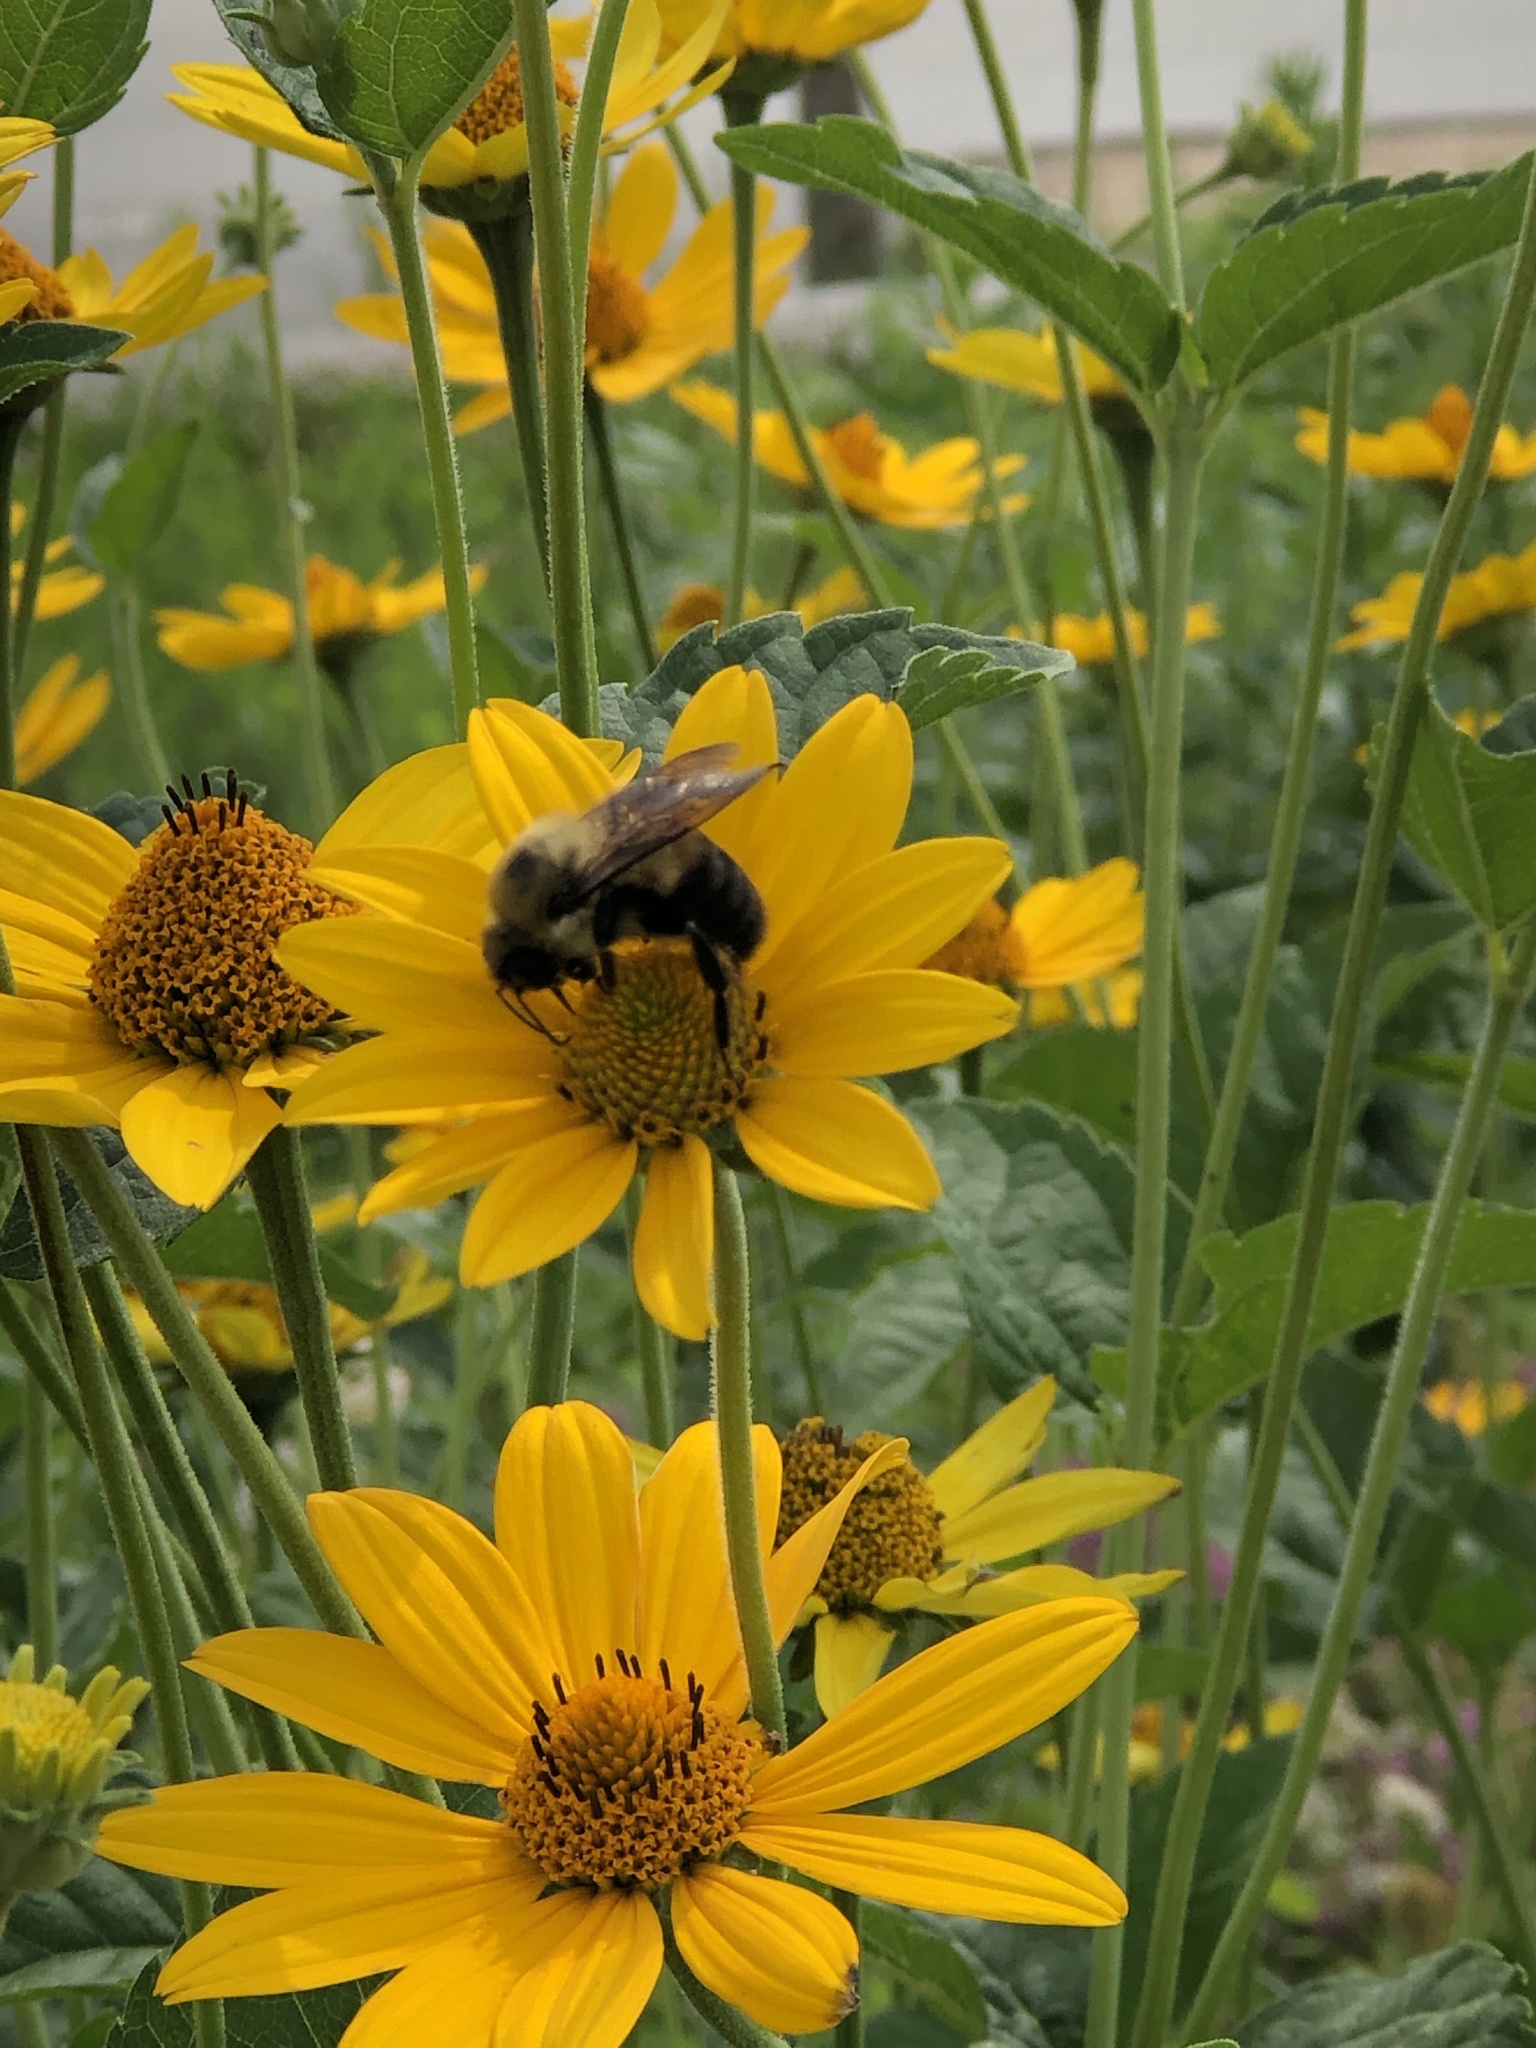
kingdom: Animalia
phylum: Arthropoda
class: Insecta
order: Hymenoptera
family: Apidae
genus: Bombus
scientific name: Bombus griseocollis
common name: Brown-belted bumble bee
